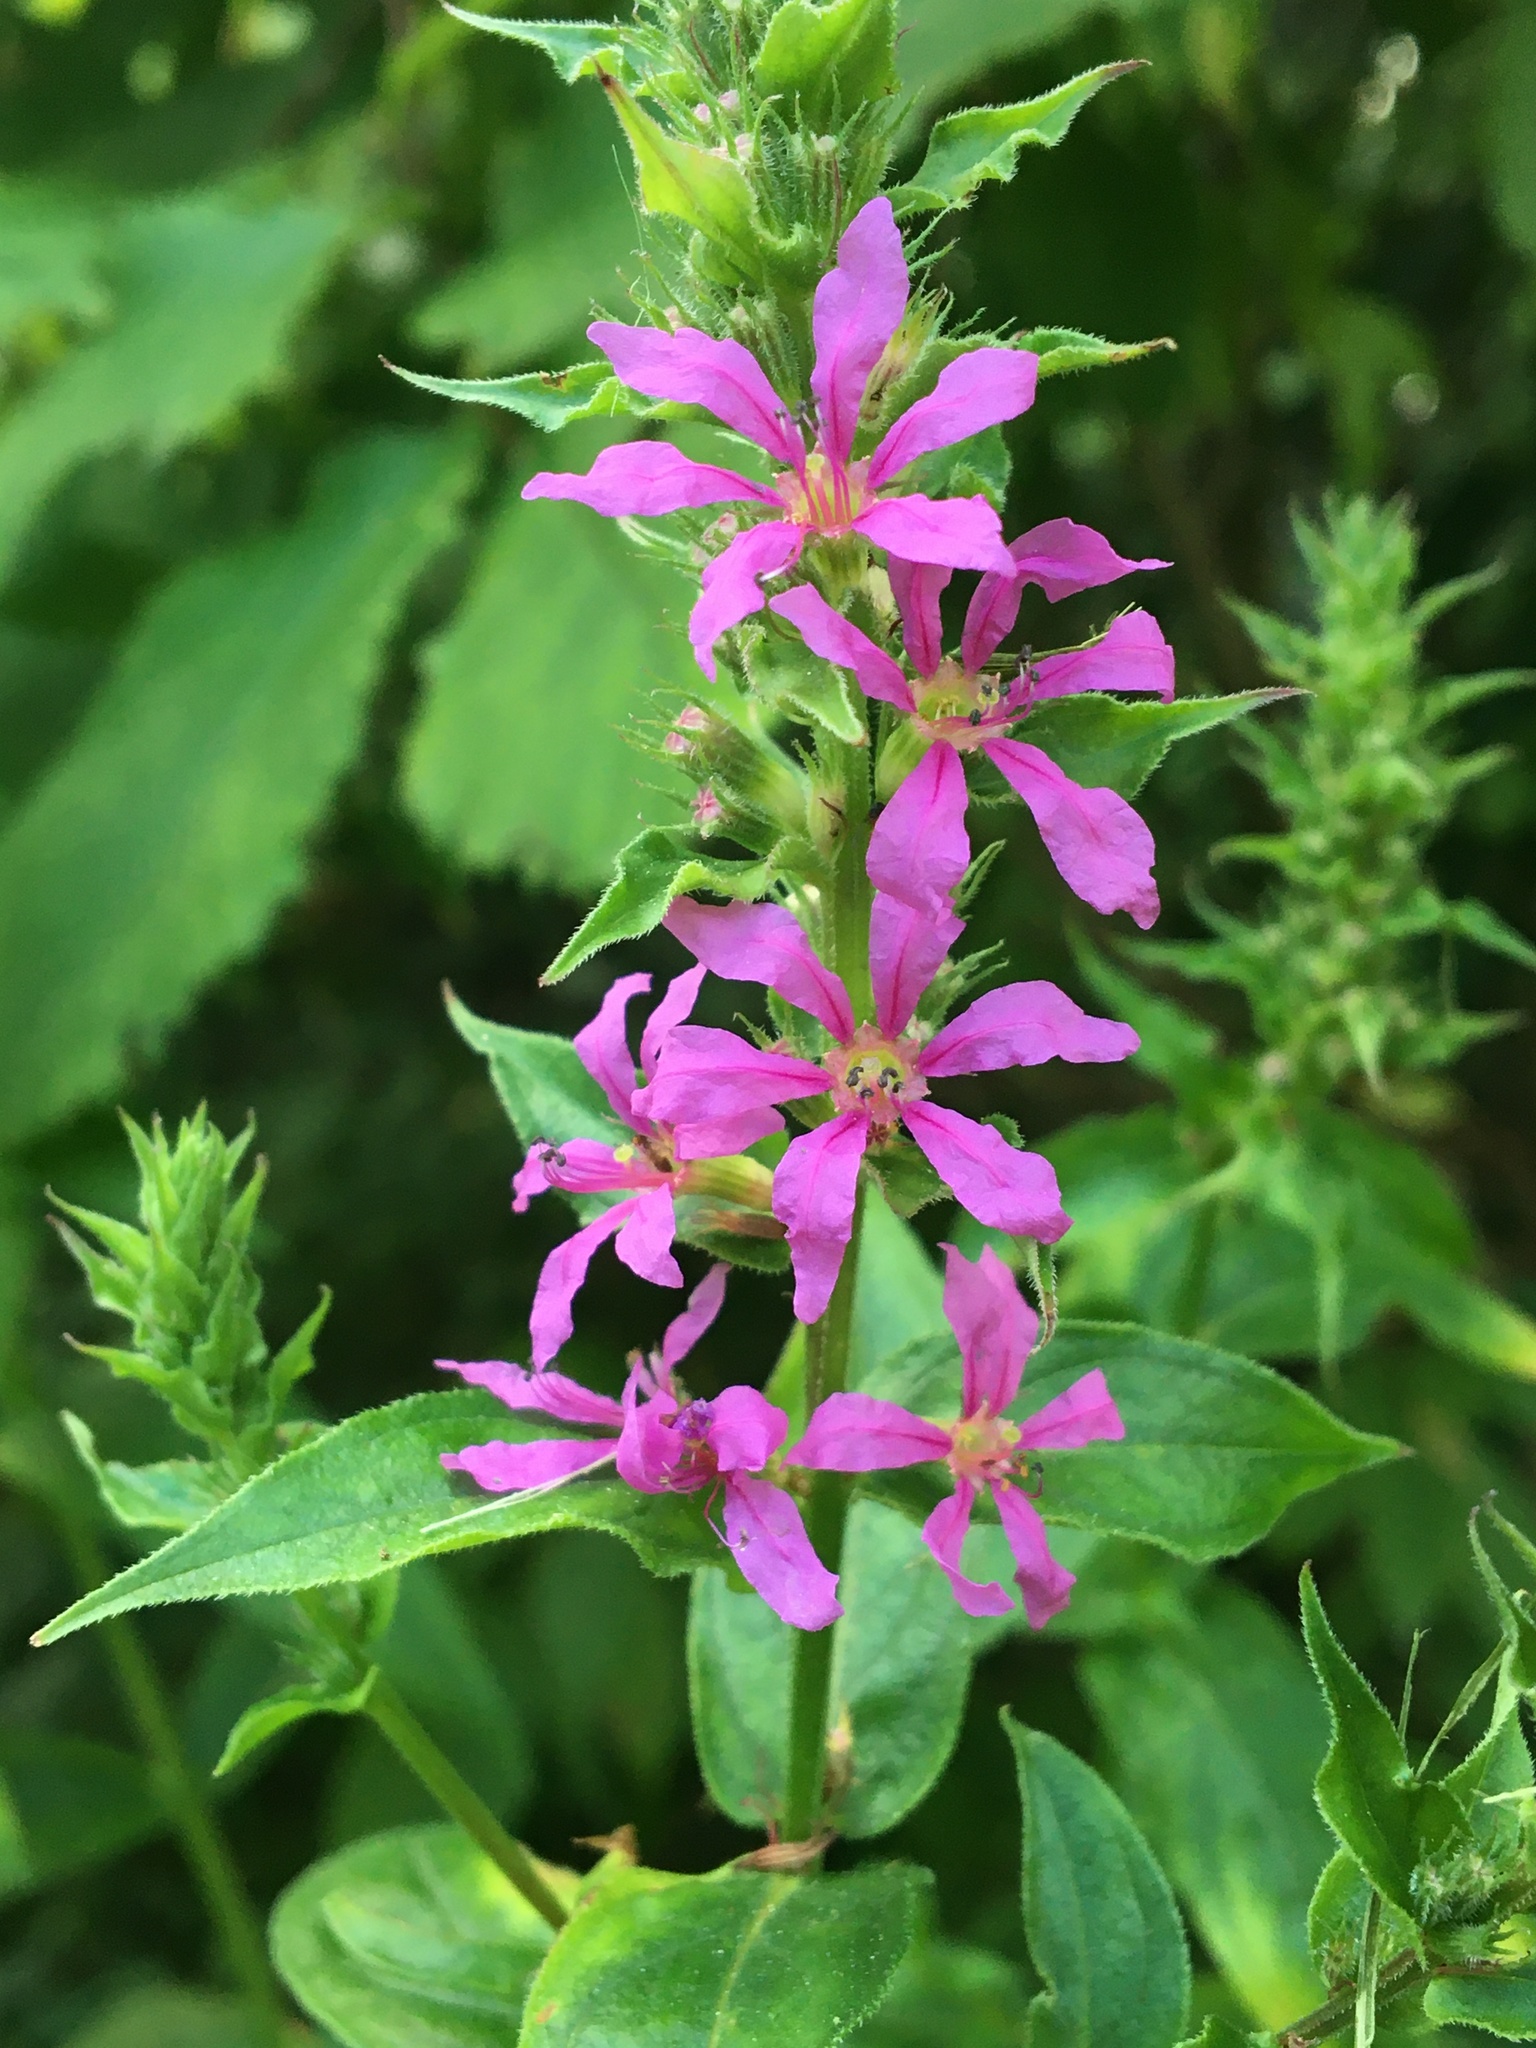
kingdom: Plantae
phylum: Tracheophyta
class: Magnoliopsida
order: Myrtales
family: Lythraceae
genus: Lythrum
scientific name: Lythrum salicaria
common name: Purple loosestrife
